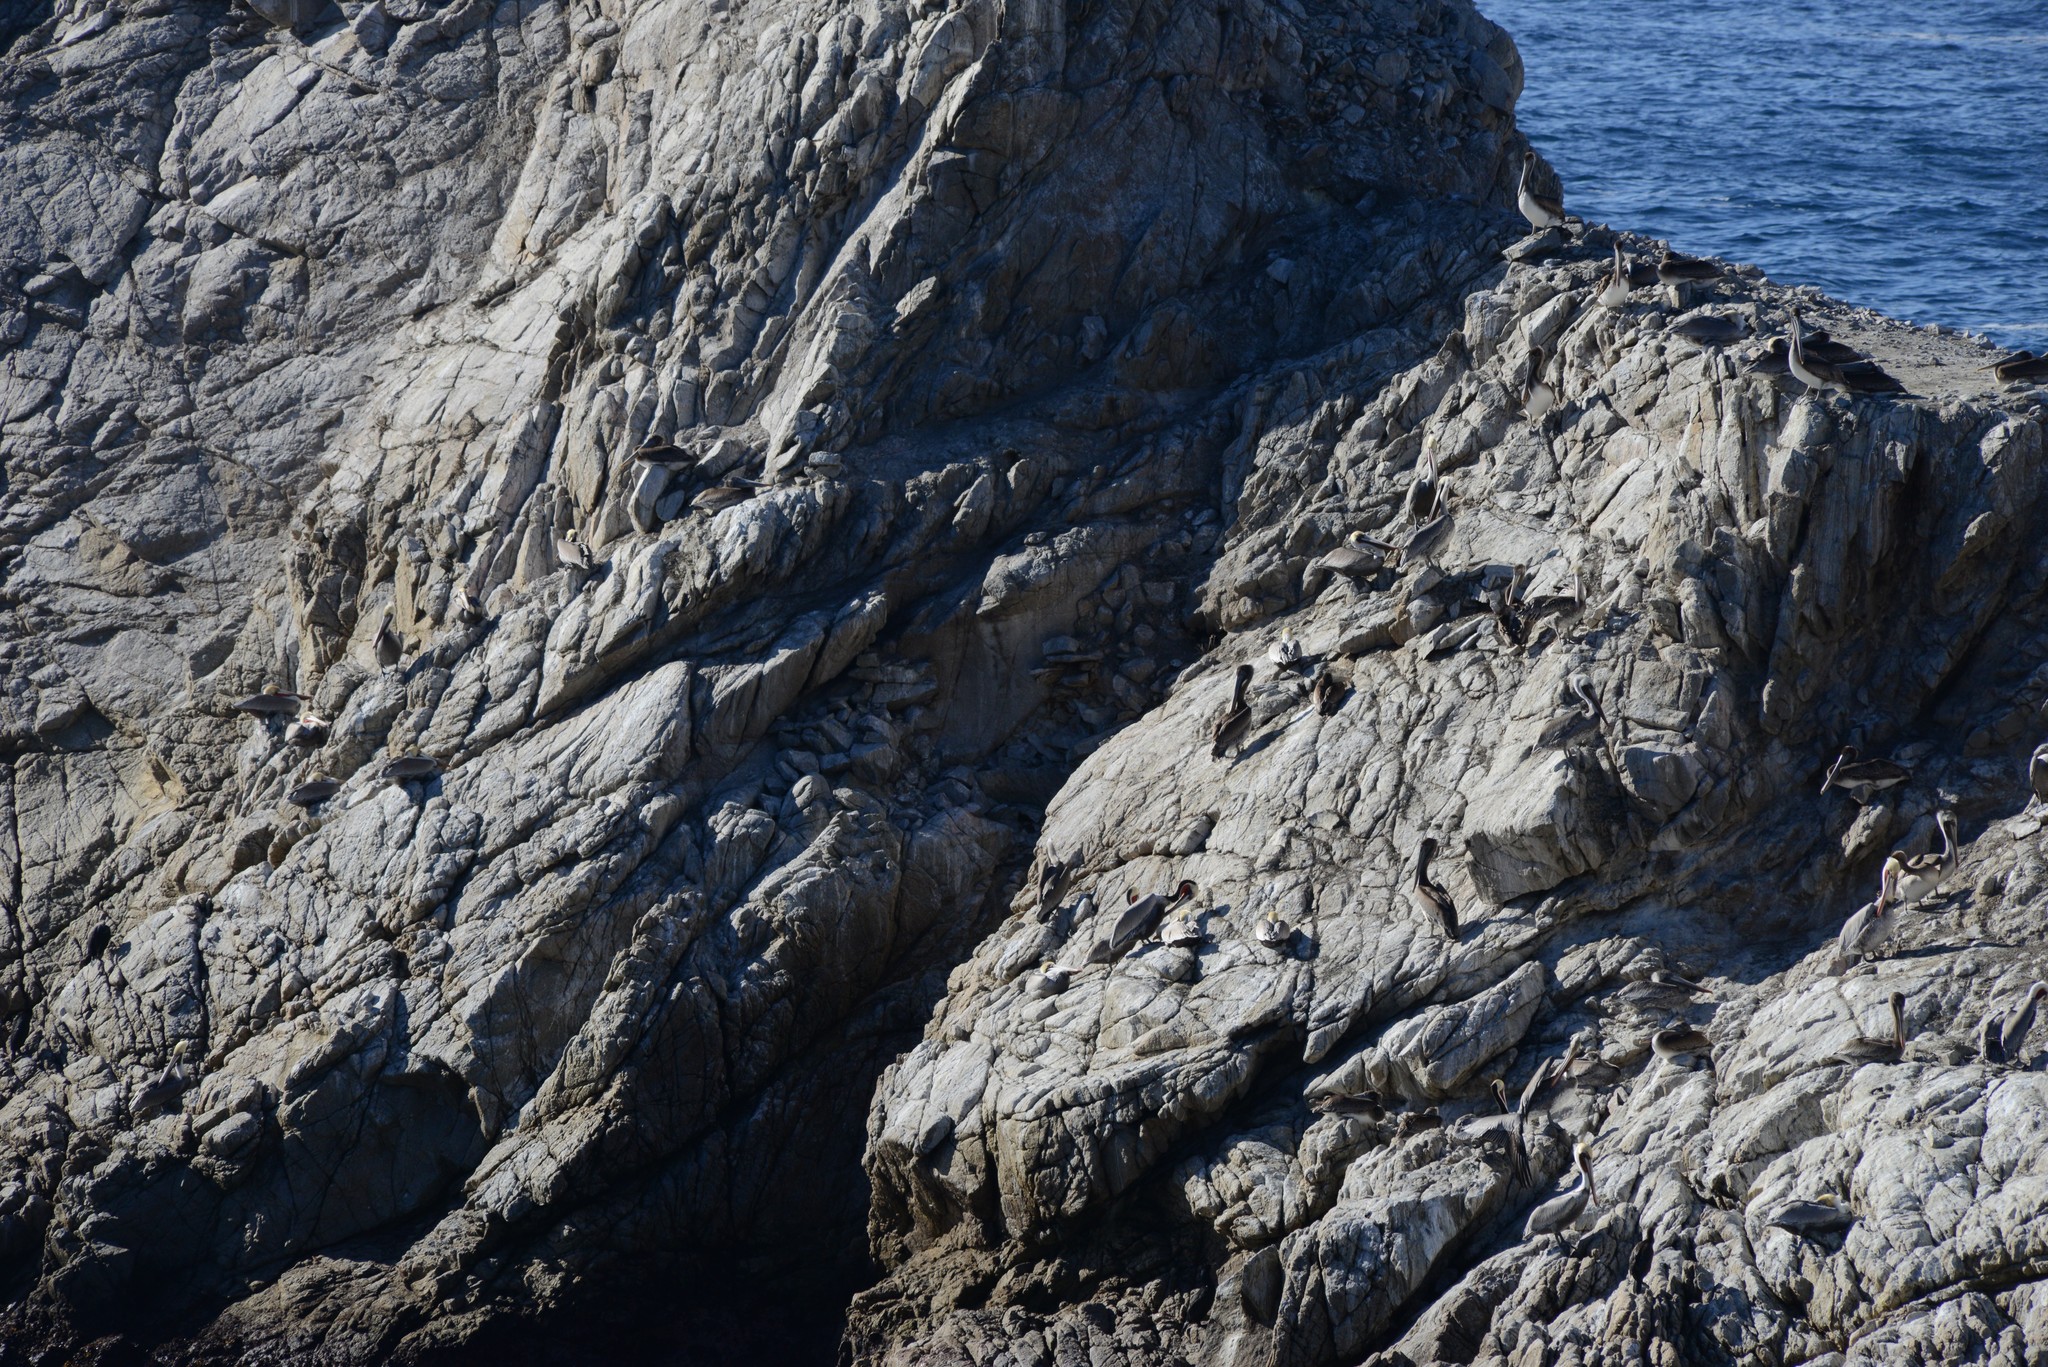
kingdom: Animalia
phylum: Chordata
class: Aves
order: Pelecaniformes
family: Pelecanidae
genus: Pelecanus
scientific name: Pelecanus occidentalis
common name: Brown pelican
